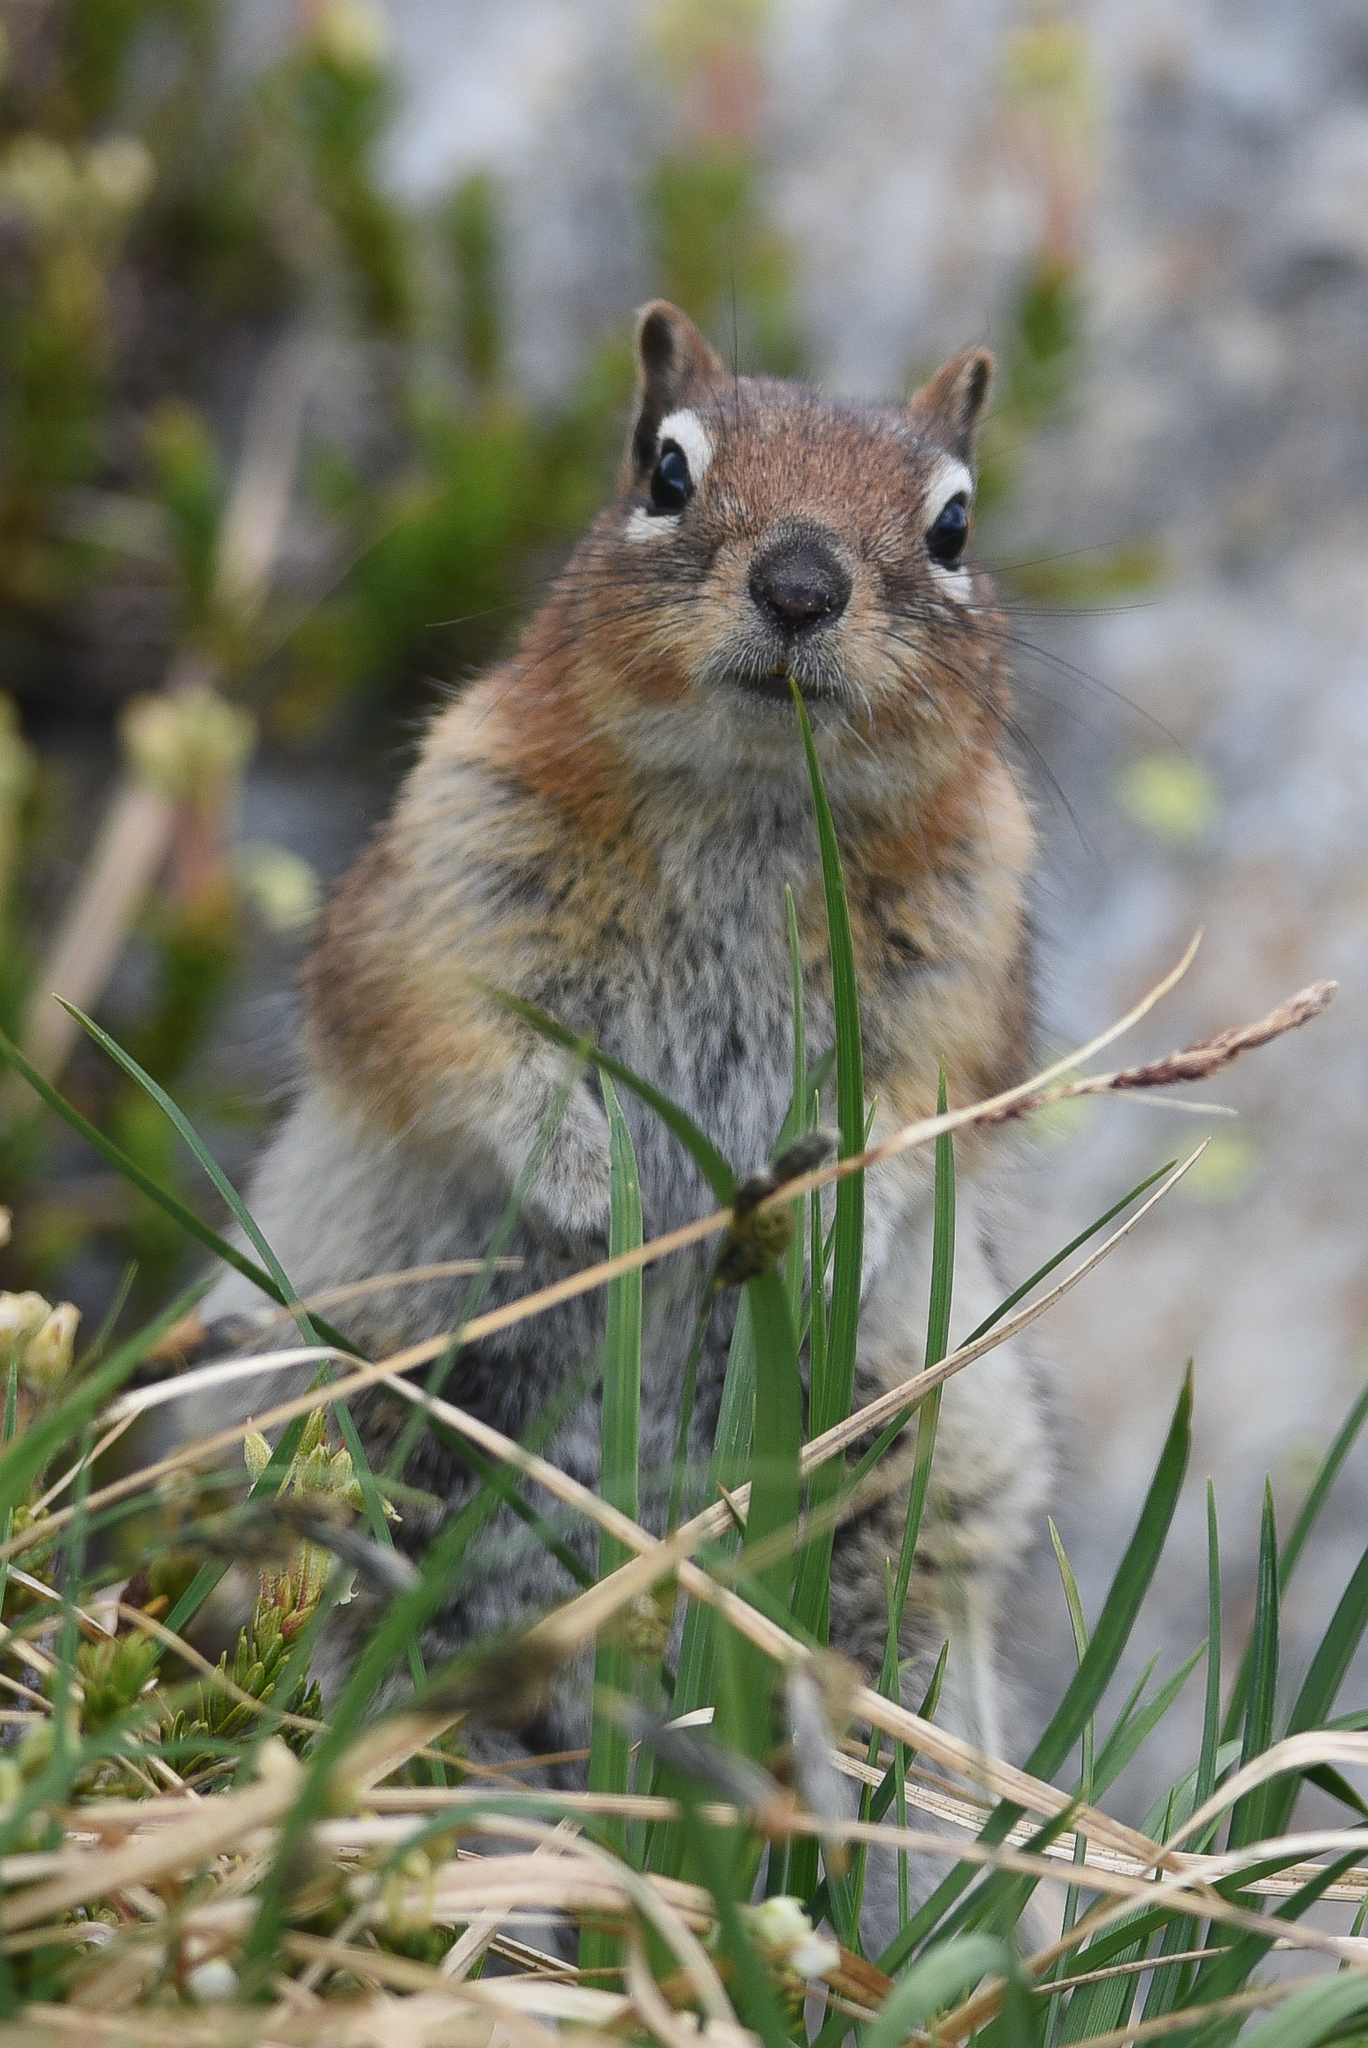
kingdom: Animalia
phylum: Chordata
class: Mammalia
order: Rodentia
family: Sciuridae
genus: Callospermophilus
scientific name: Callospermophilus lateralis
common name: Golden-mantled ground squirrel
